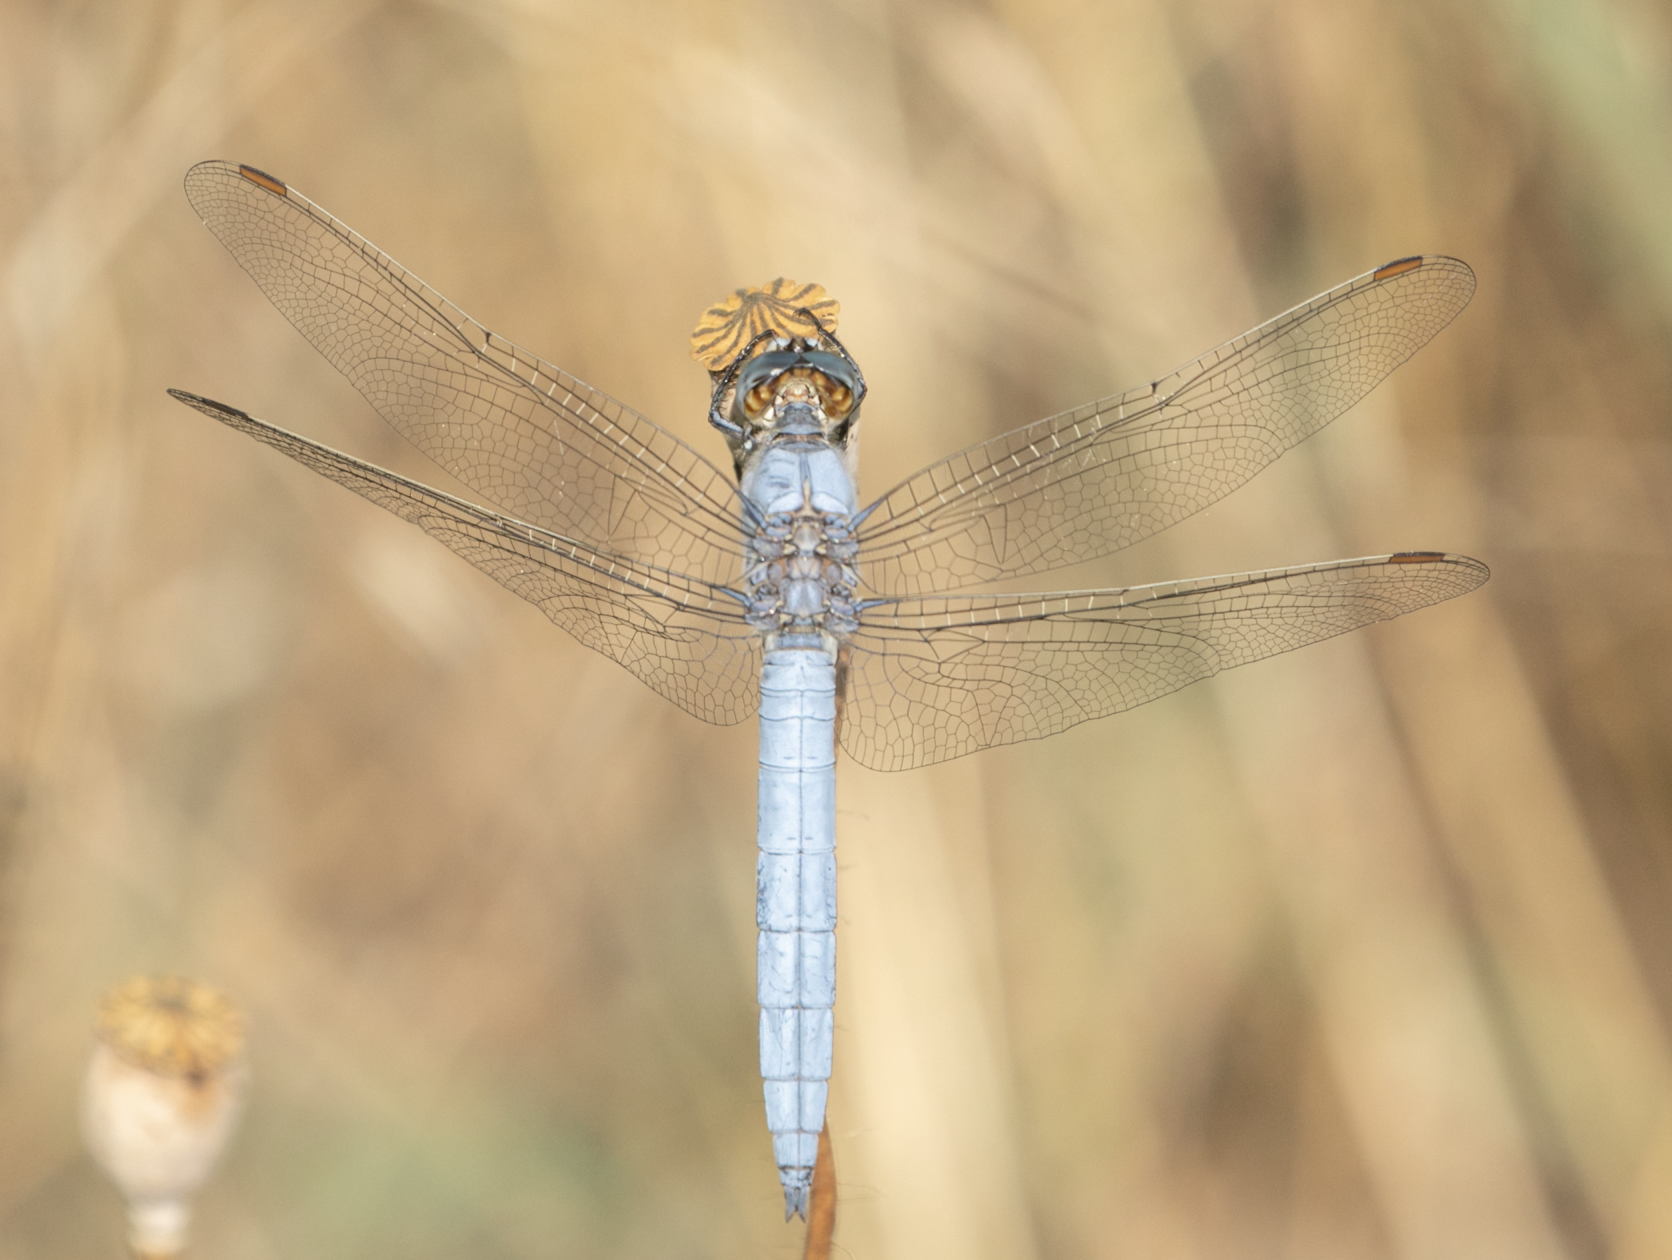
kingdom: Animalia
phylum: Arthropoda
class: Insecta
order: Odonata
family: Libellulidae
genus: Orthetrum
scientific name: Orthetrum brunneum
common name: Southern skimmer
